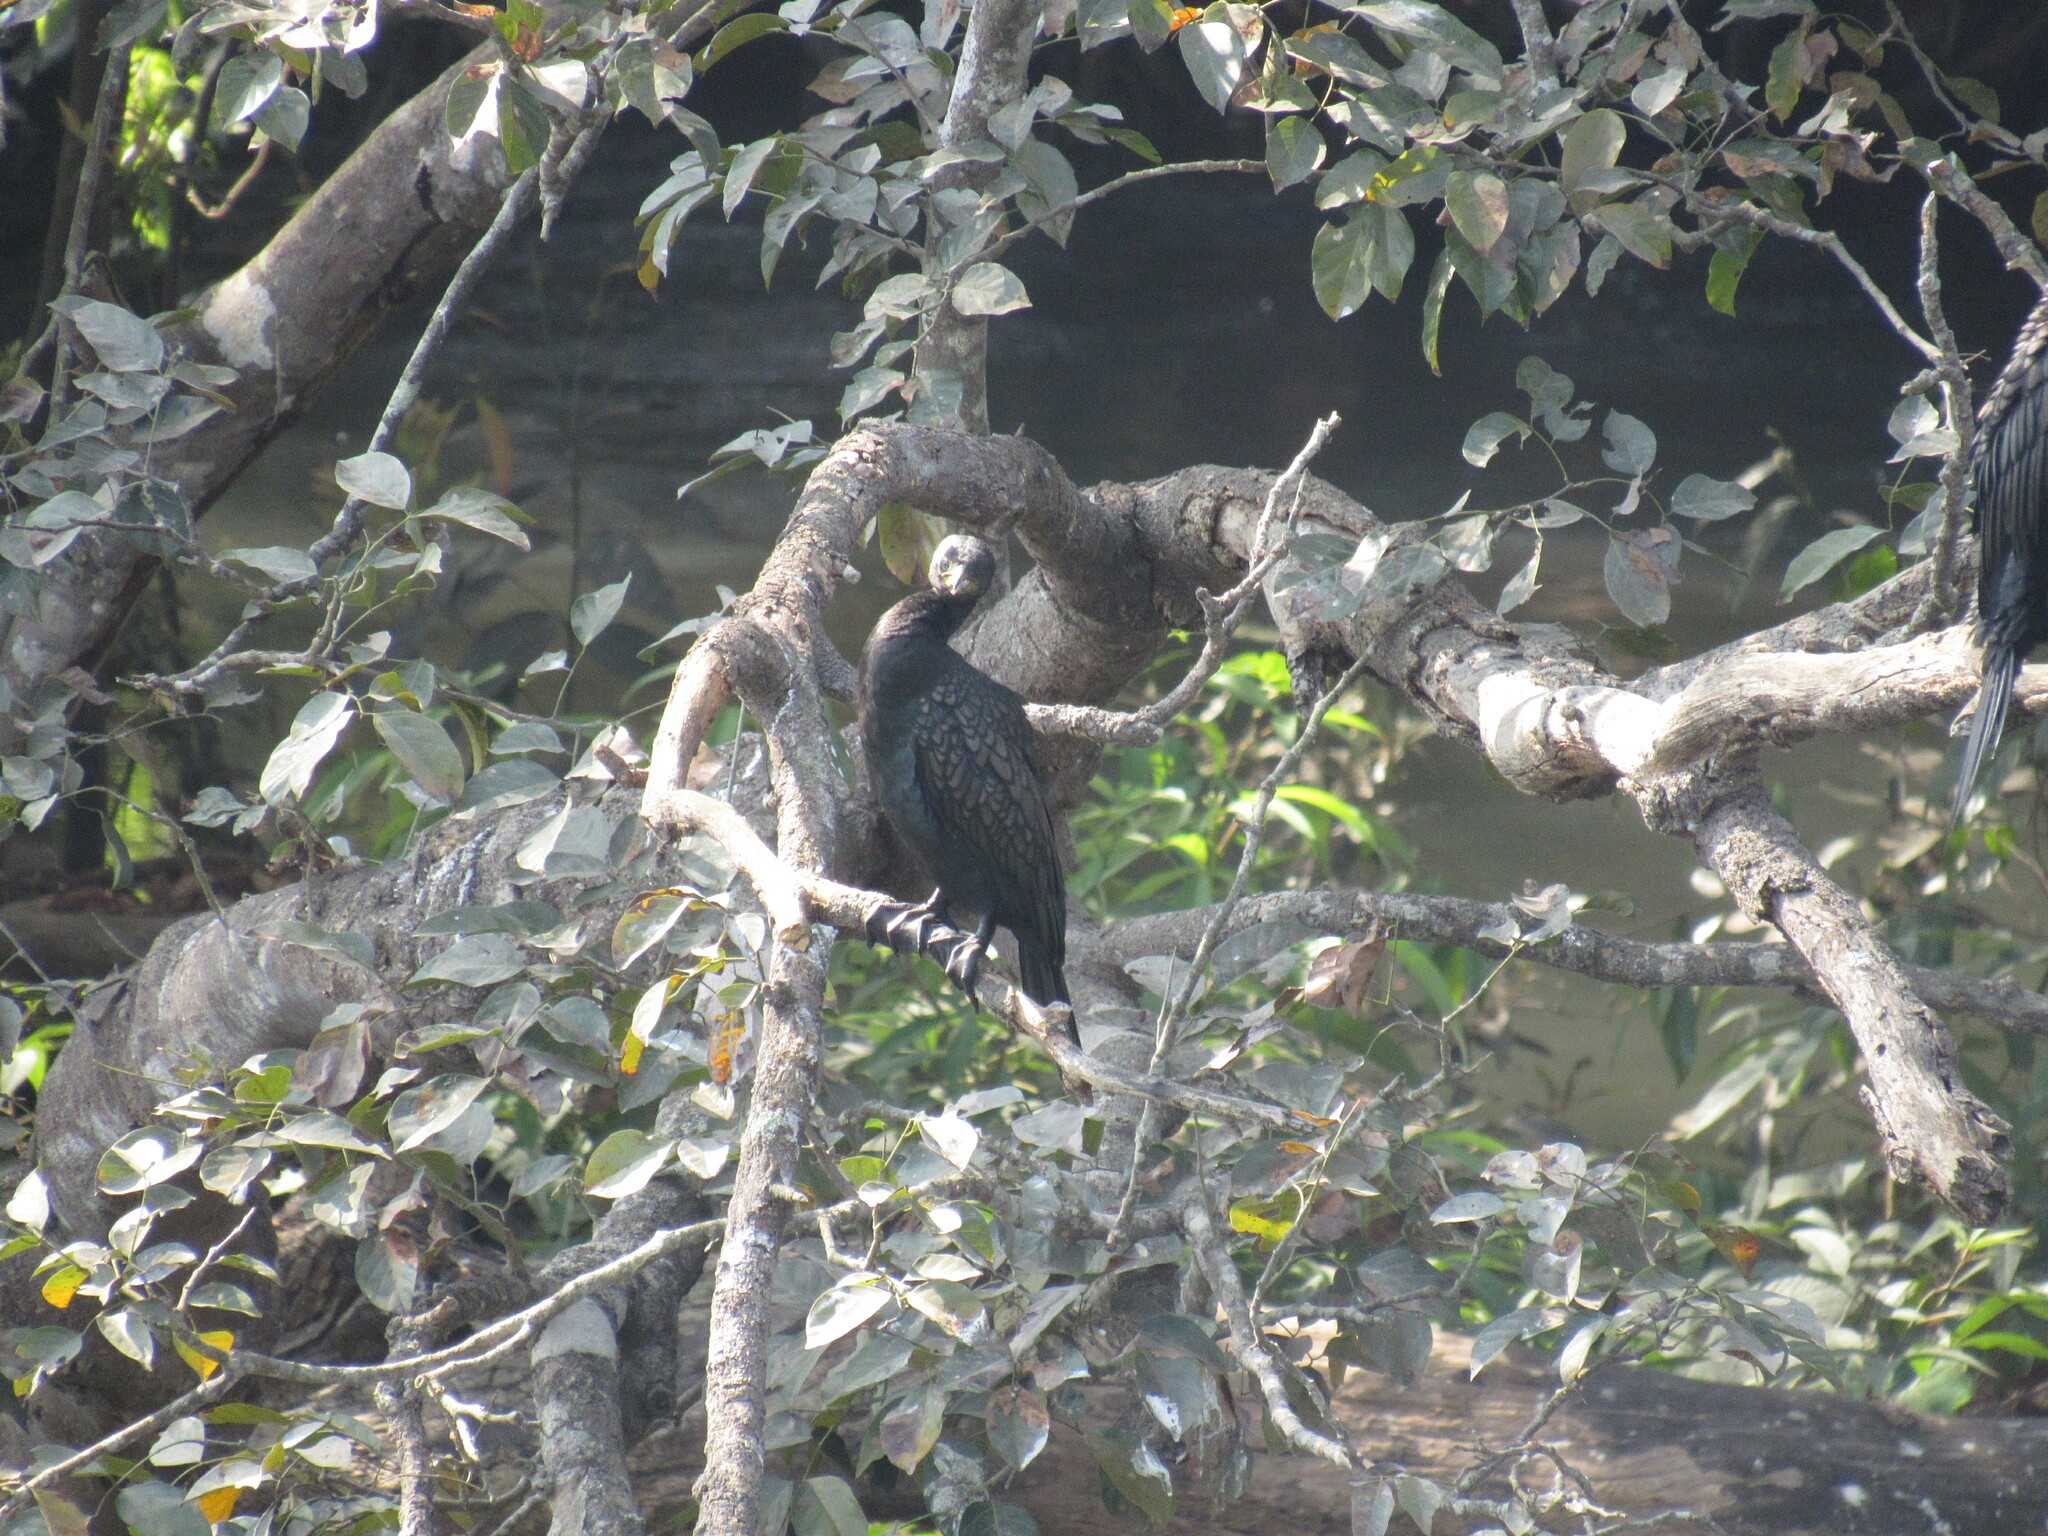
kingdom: Animalia
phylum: Chordata
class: Aves
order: Suliformes
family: Phalacrocoracidae
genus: Phalacrocorax
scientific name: Phalacrocorax fuscicollis
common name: Indian cormorant
